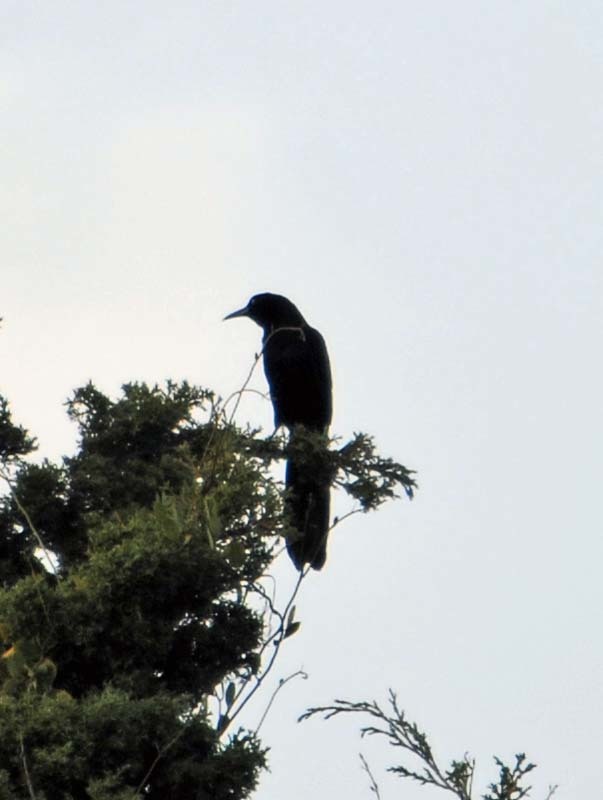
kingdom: Animalia
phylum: Chordata
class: Aves
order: Passeriformes
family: Icteridae
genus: Quiscalus
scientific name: Quiscalus mexicanus
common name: Great-tailed grackle
